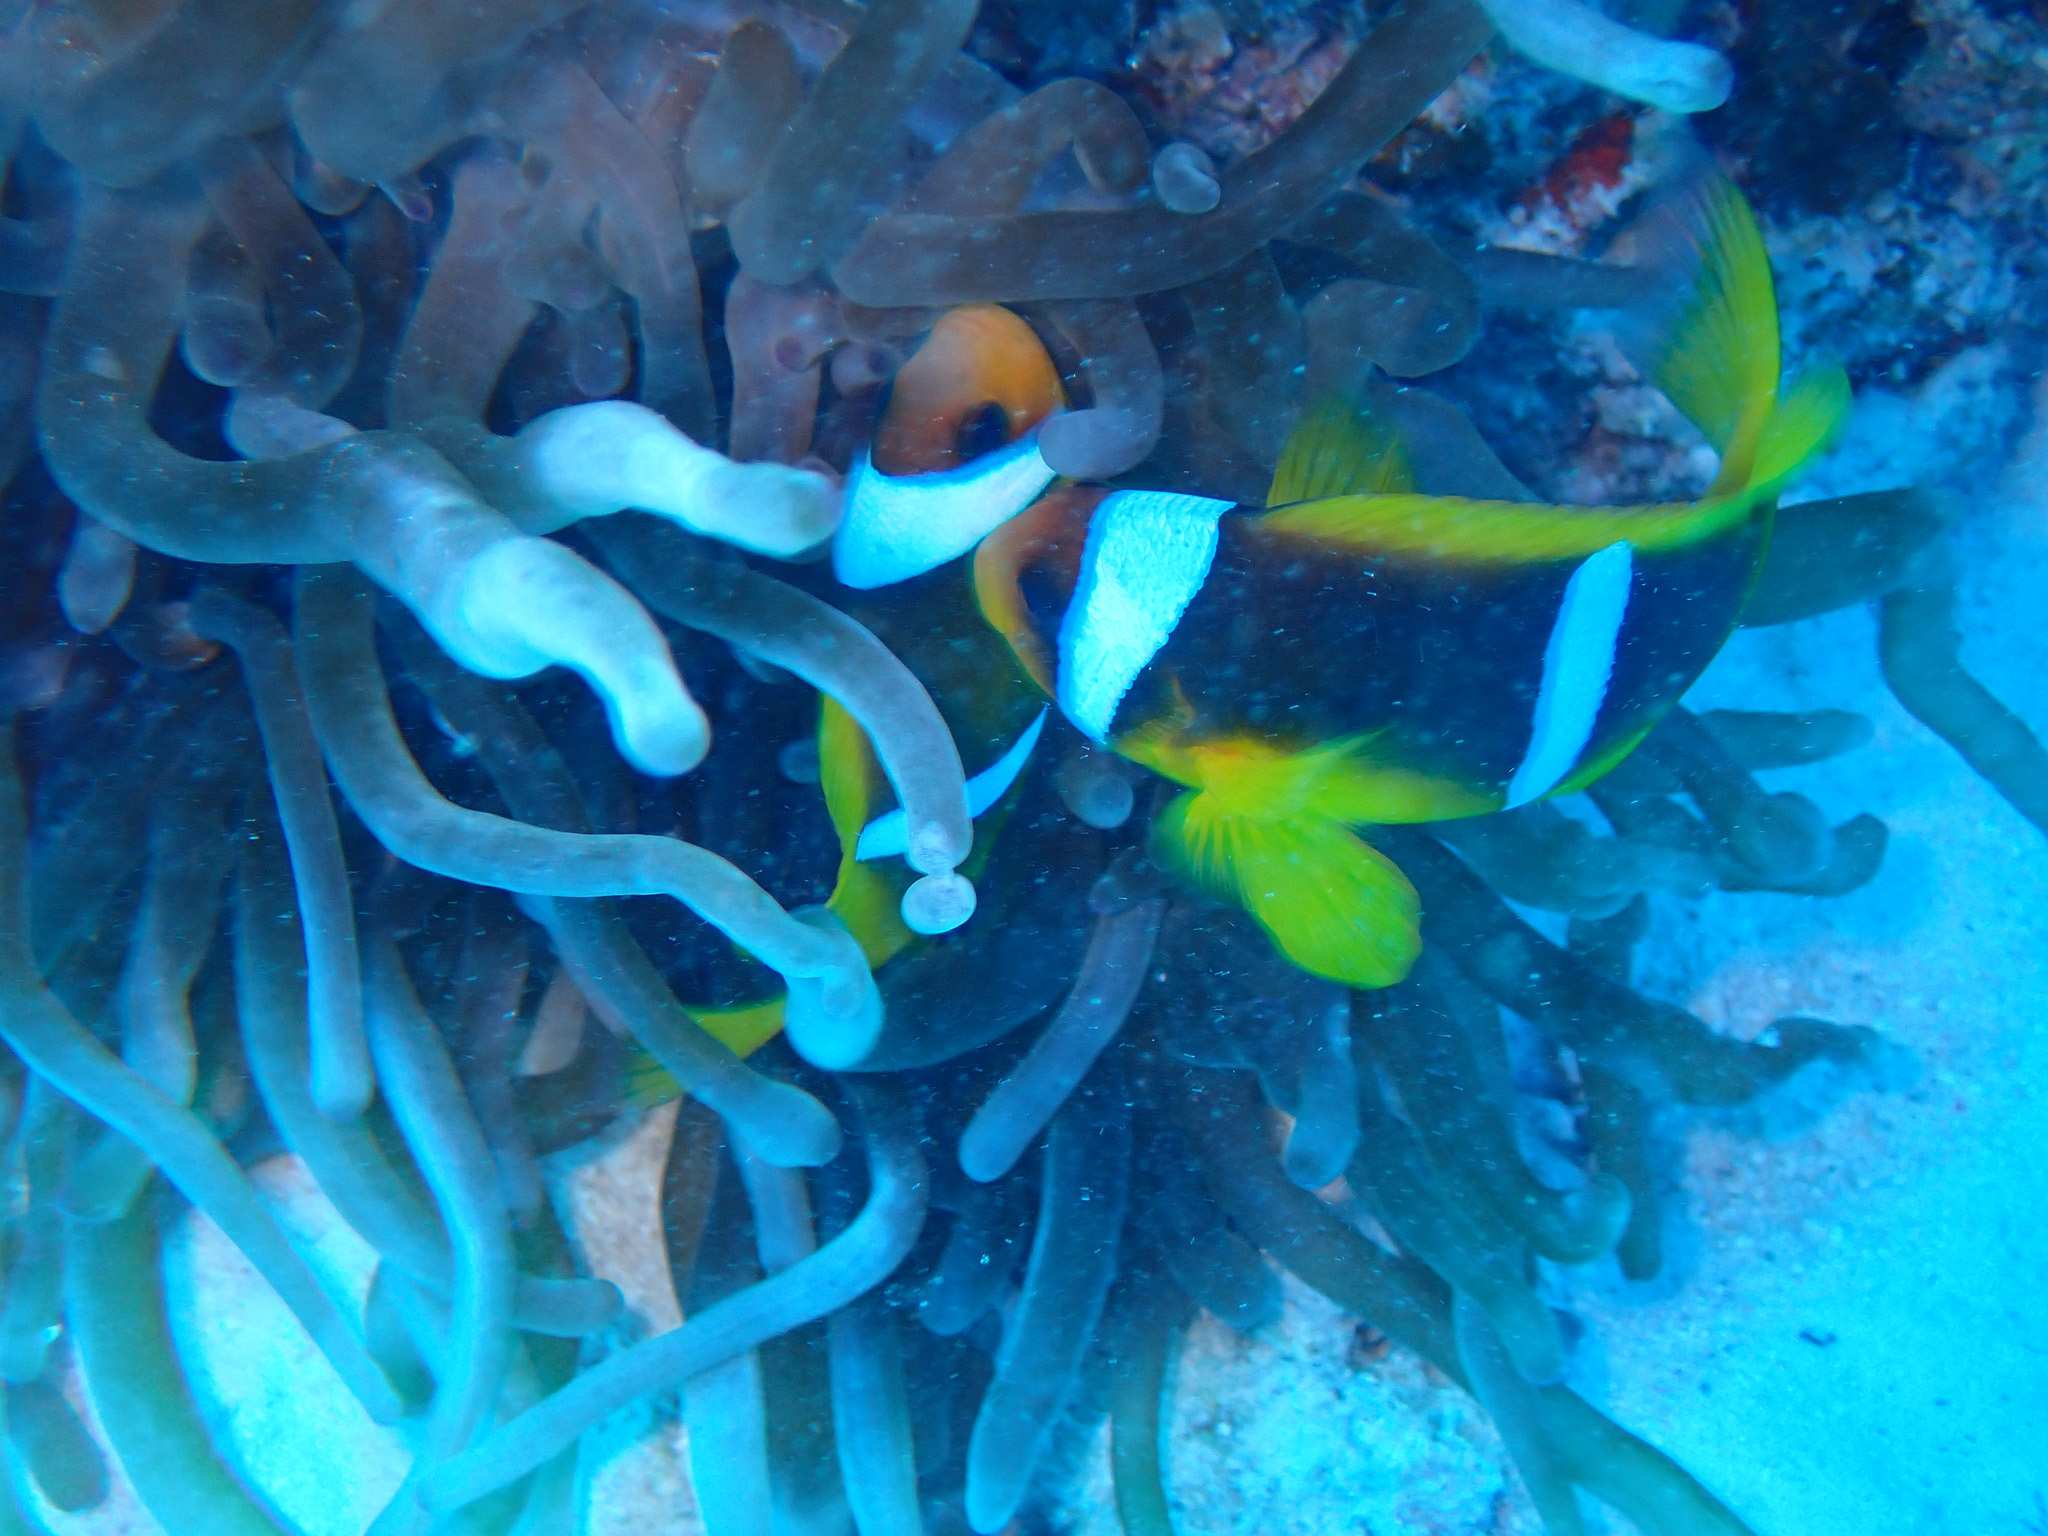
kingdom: Animalia
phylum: Cnidaria
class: Anthozoa
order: Actiniaria
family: Actiniidae
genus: Entacmaea
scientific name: Entacmaea quadricolor
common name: Bulb tentacle sea anemone
